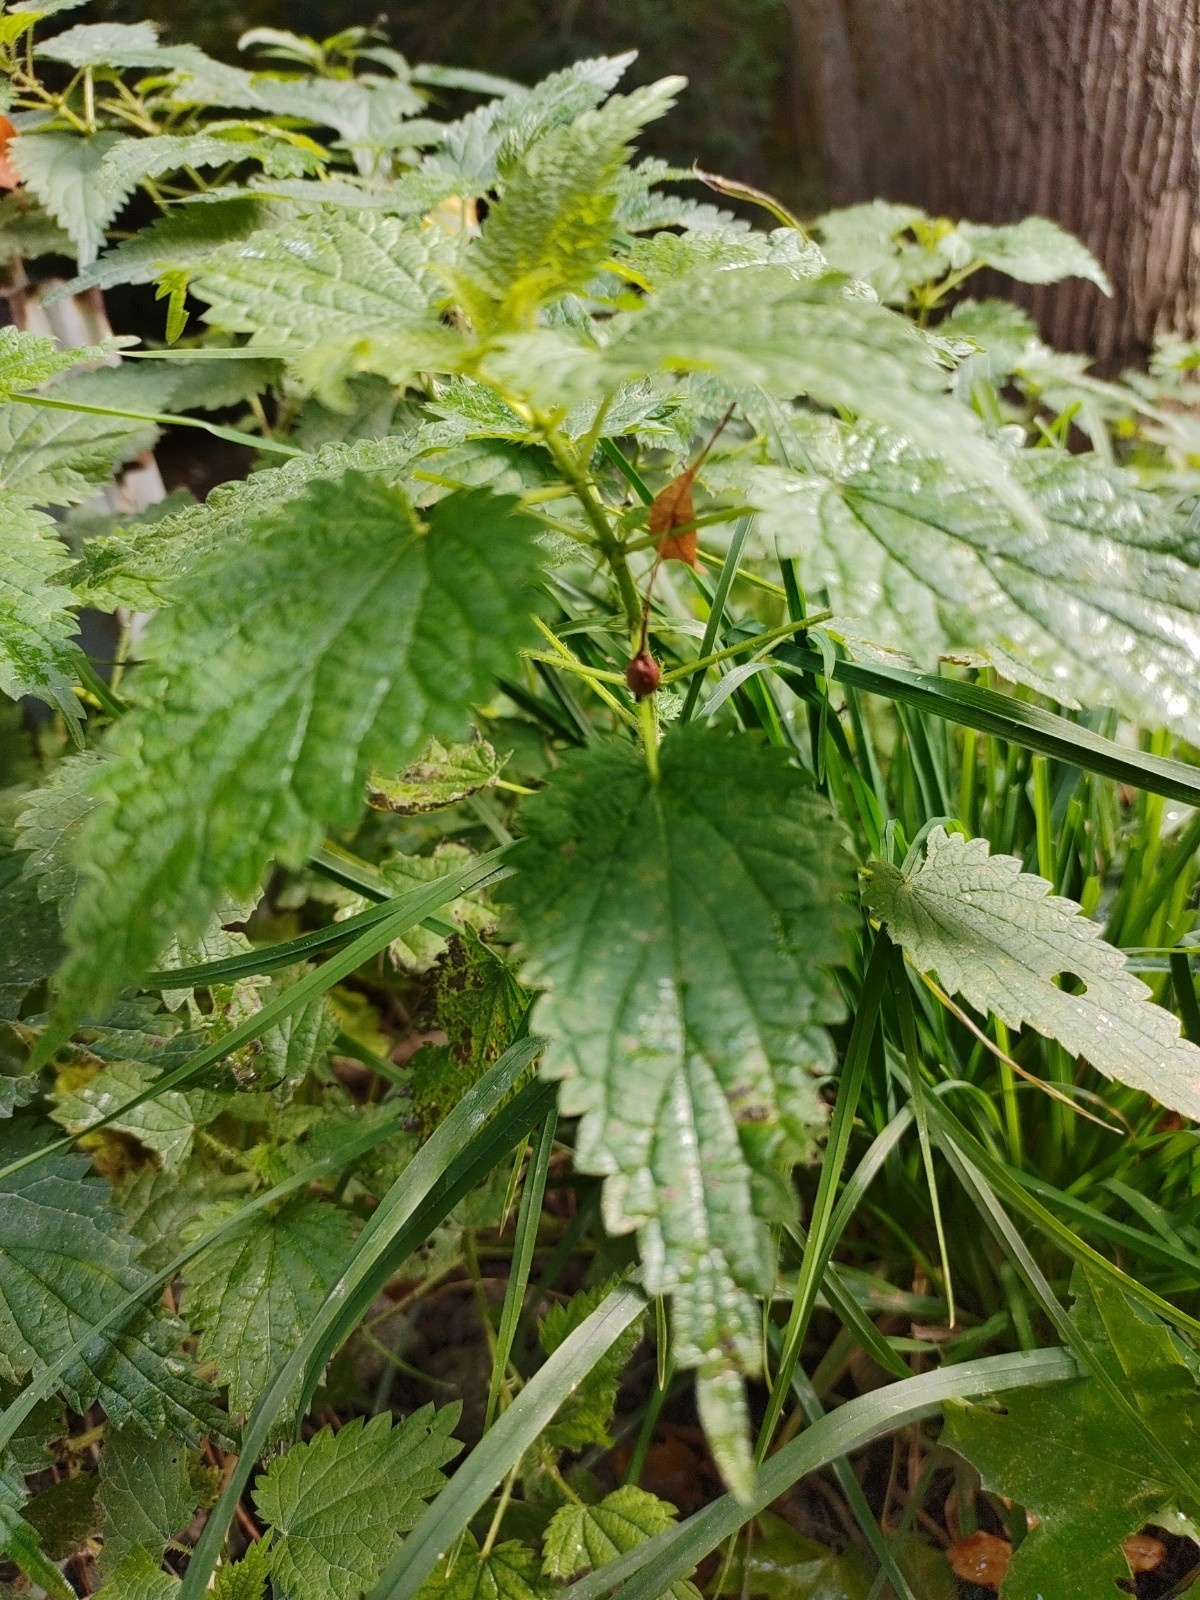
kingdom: Plantae
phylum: Tracheophyta
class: Magnoliopsida
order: Rosales
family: Urticaceae
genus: Urtica
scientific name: Urtica dioica
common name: Common nettle
